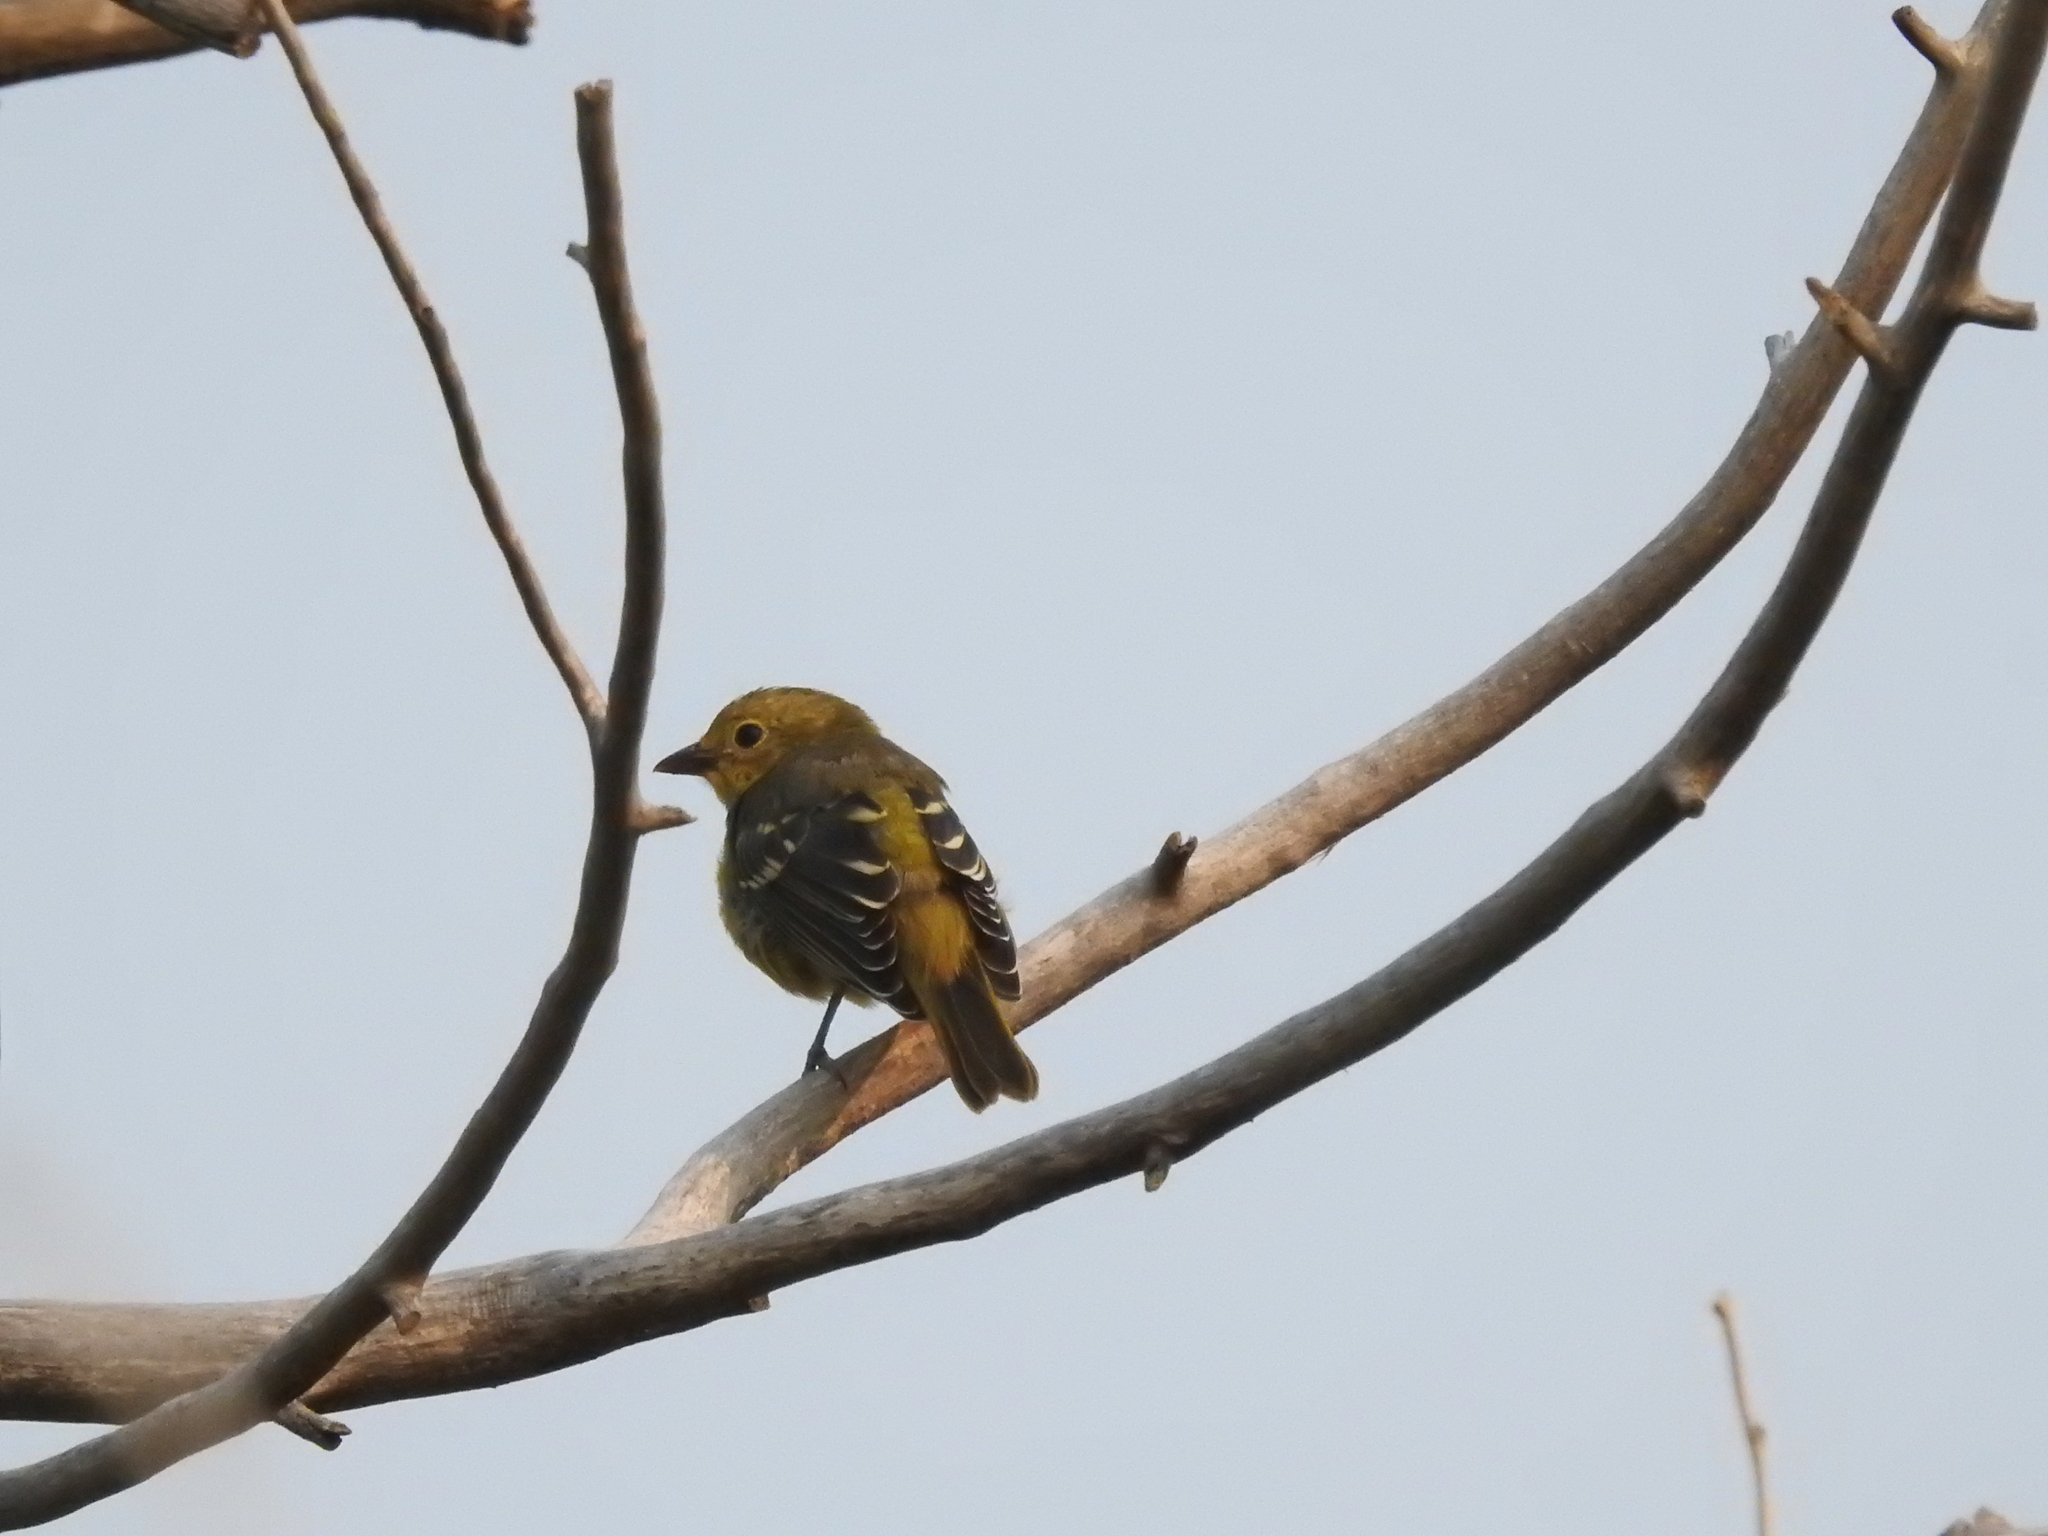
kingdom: Animalia
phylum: Chordata
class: Aves
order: Passeriformes
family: Cardinalidae
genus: Piranga
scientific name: Piranga ludoviciana
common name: Western tanager
